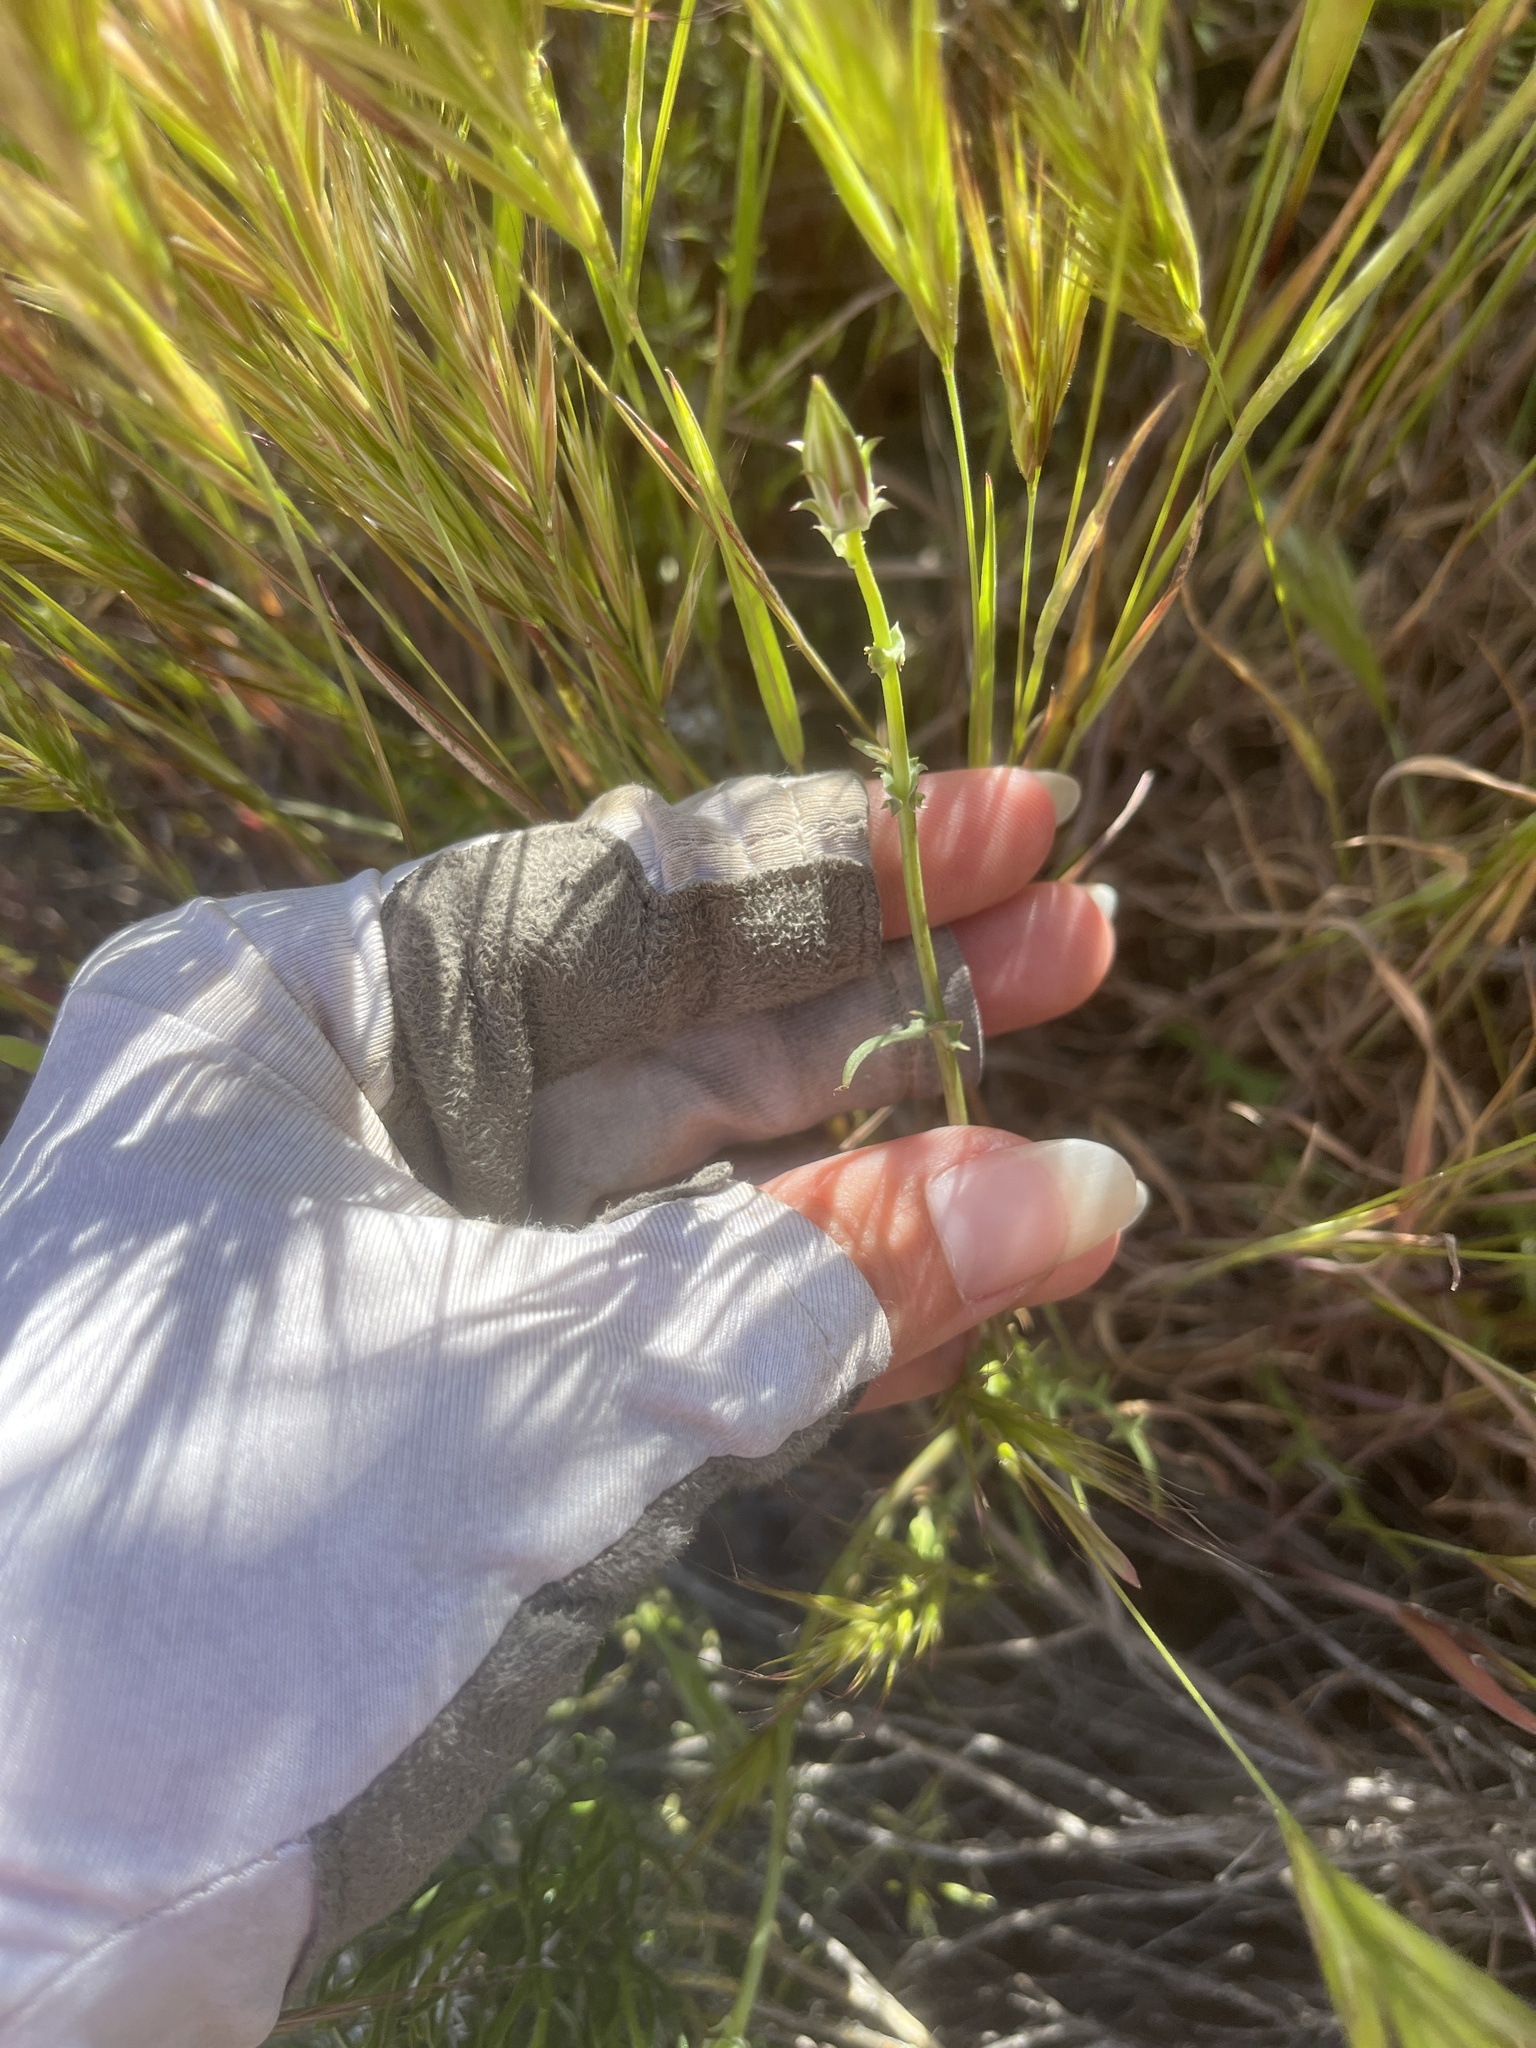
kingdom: Plantae
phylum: Tracheophyta
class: Magnoliopsida
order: Asterales
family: Asteraceae
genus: Rafinesquia
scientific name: Rafinesquia neomexicana
